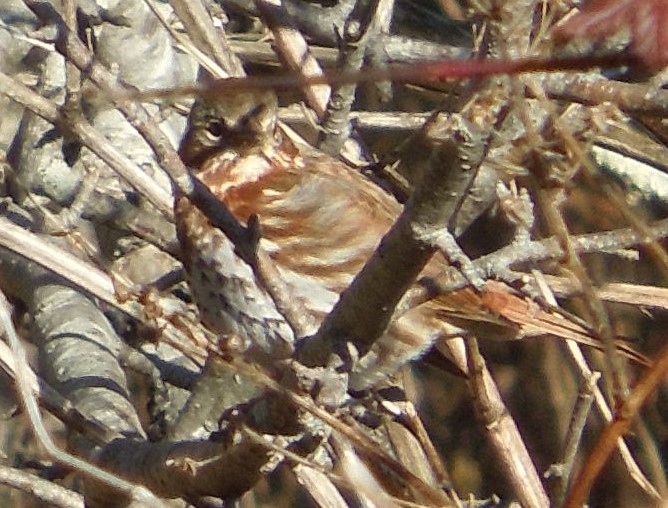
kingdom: Animalia
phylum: Chordata
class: Aves
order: Passeriformes
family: Passerellidae
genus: Passerella
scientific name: Passerella iliaca
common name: Fox sparrow
